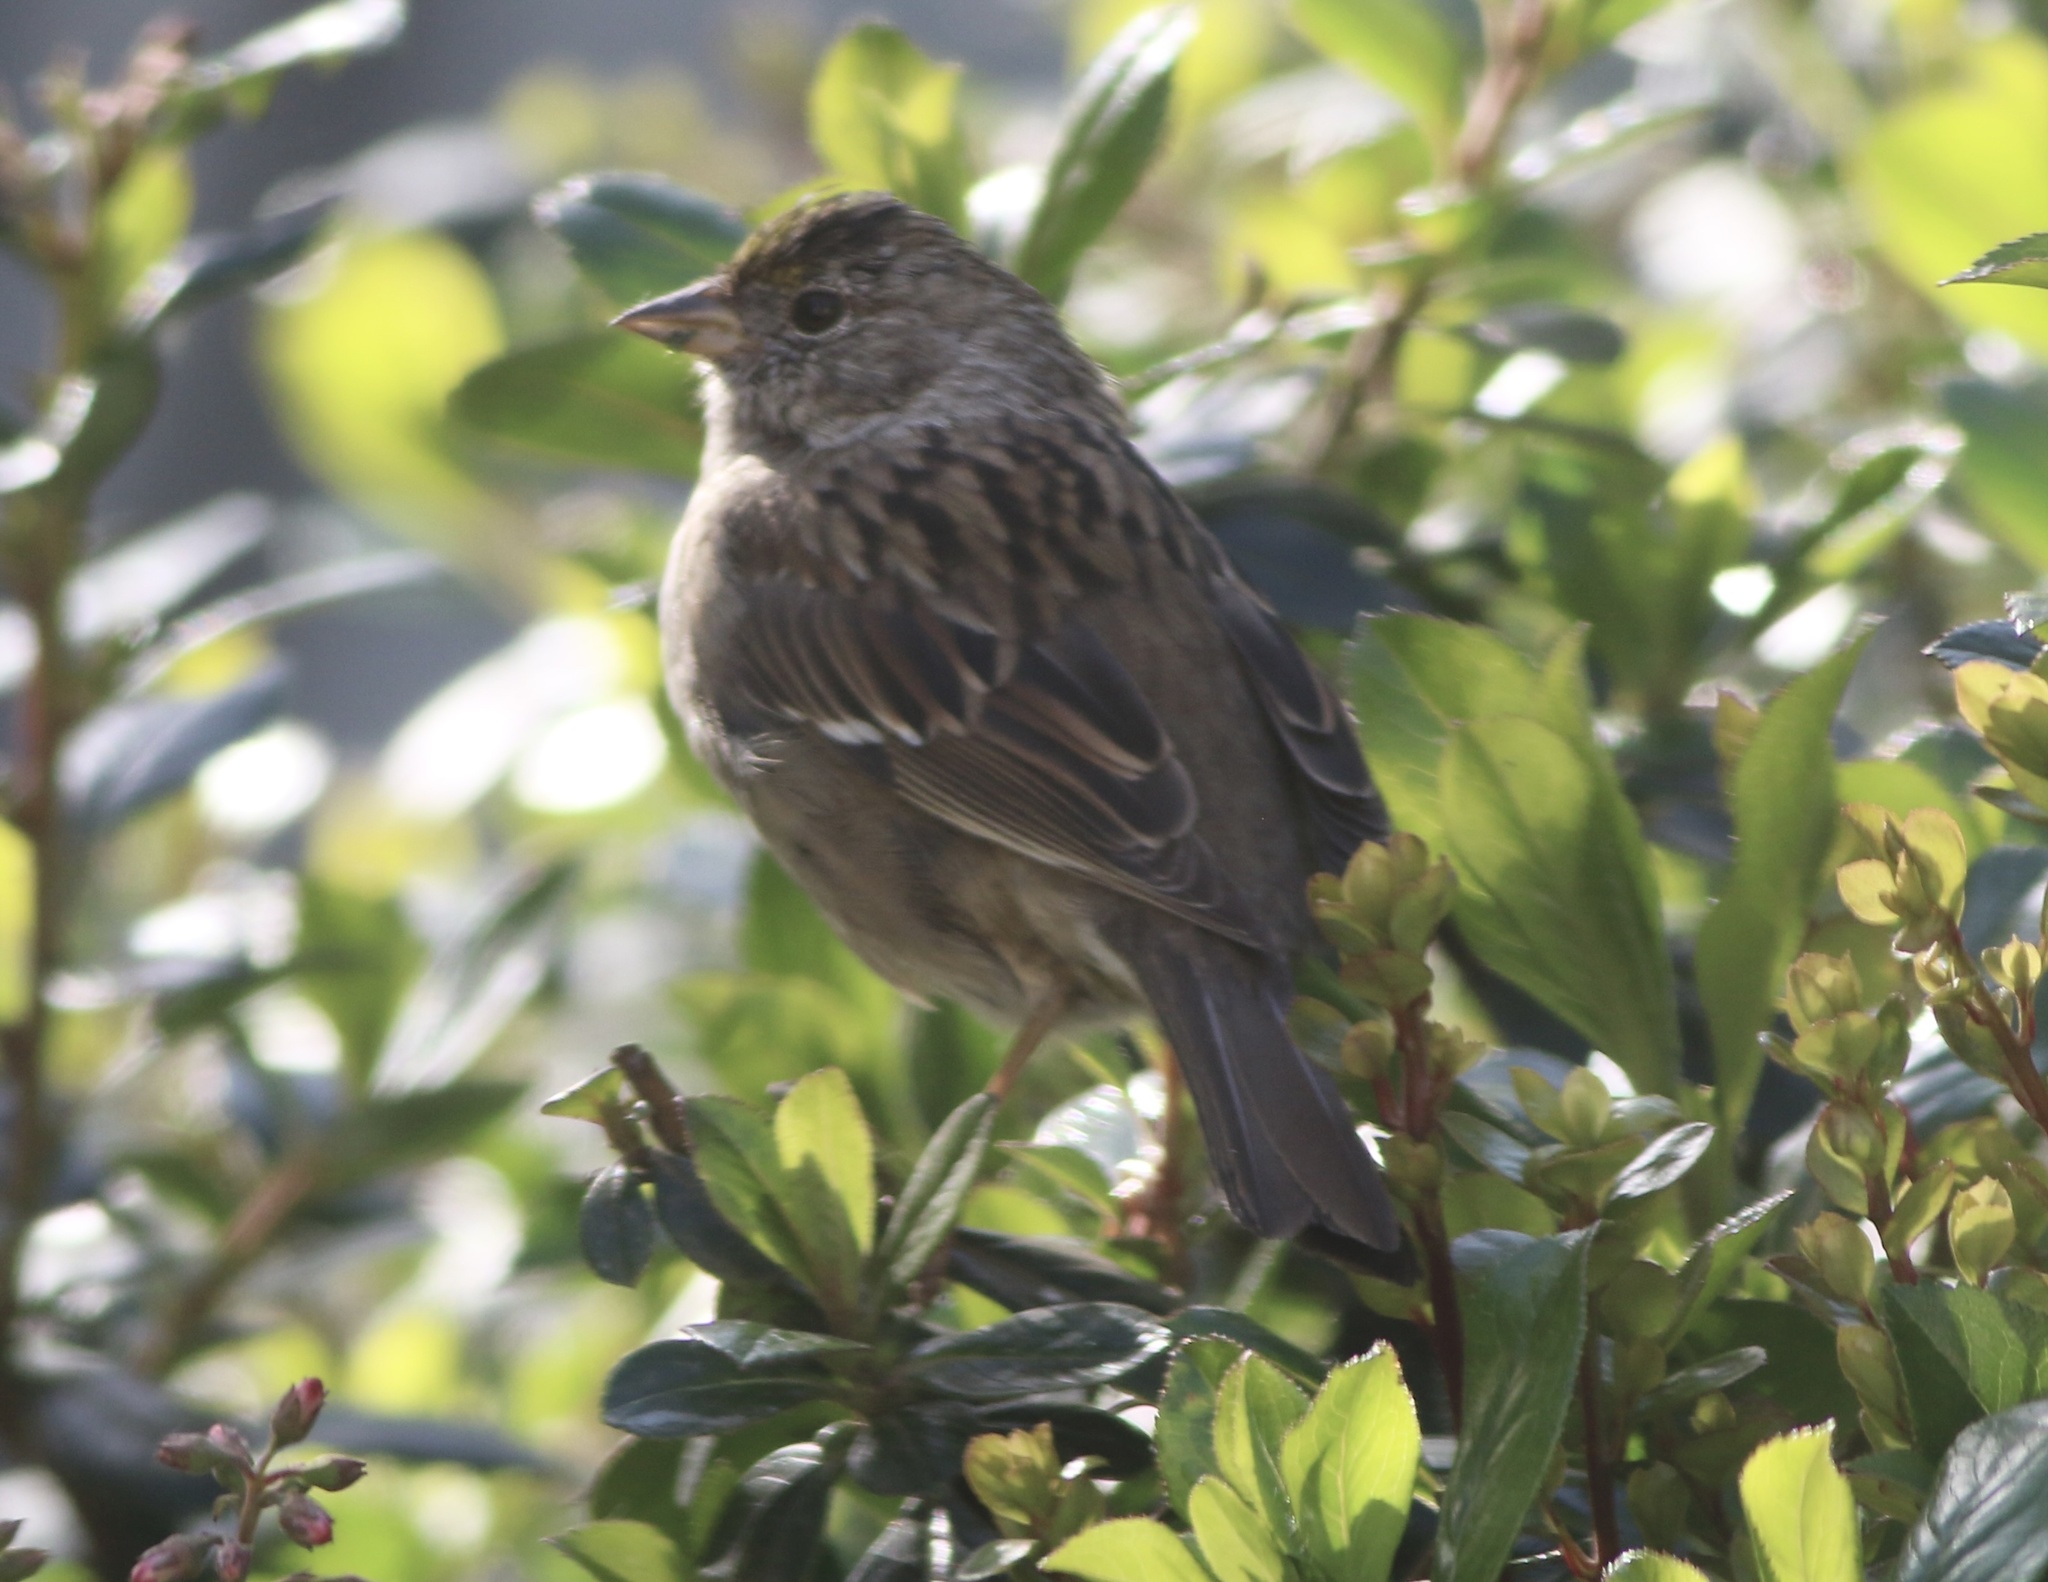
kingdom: Animalia
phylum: Chordata
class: Aves
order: Passeriformes
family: Passerellidae
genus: Zonotrichia
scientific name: Zonotrichia atricapilla
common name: Golden-crowned sparrow
